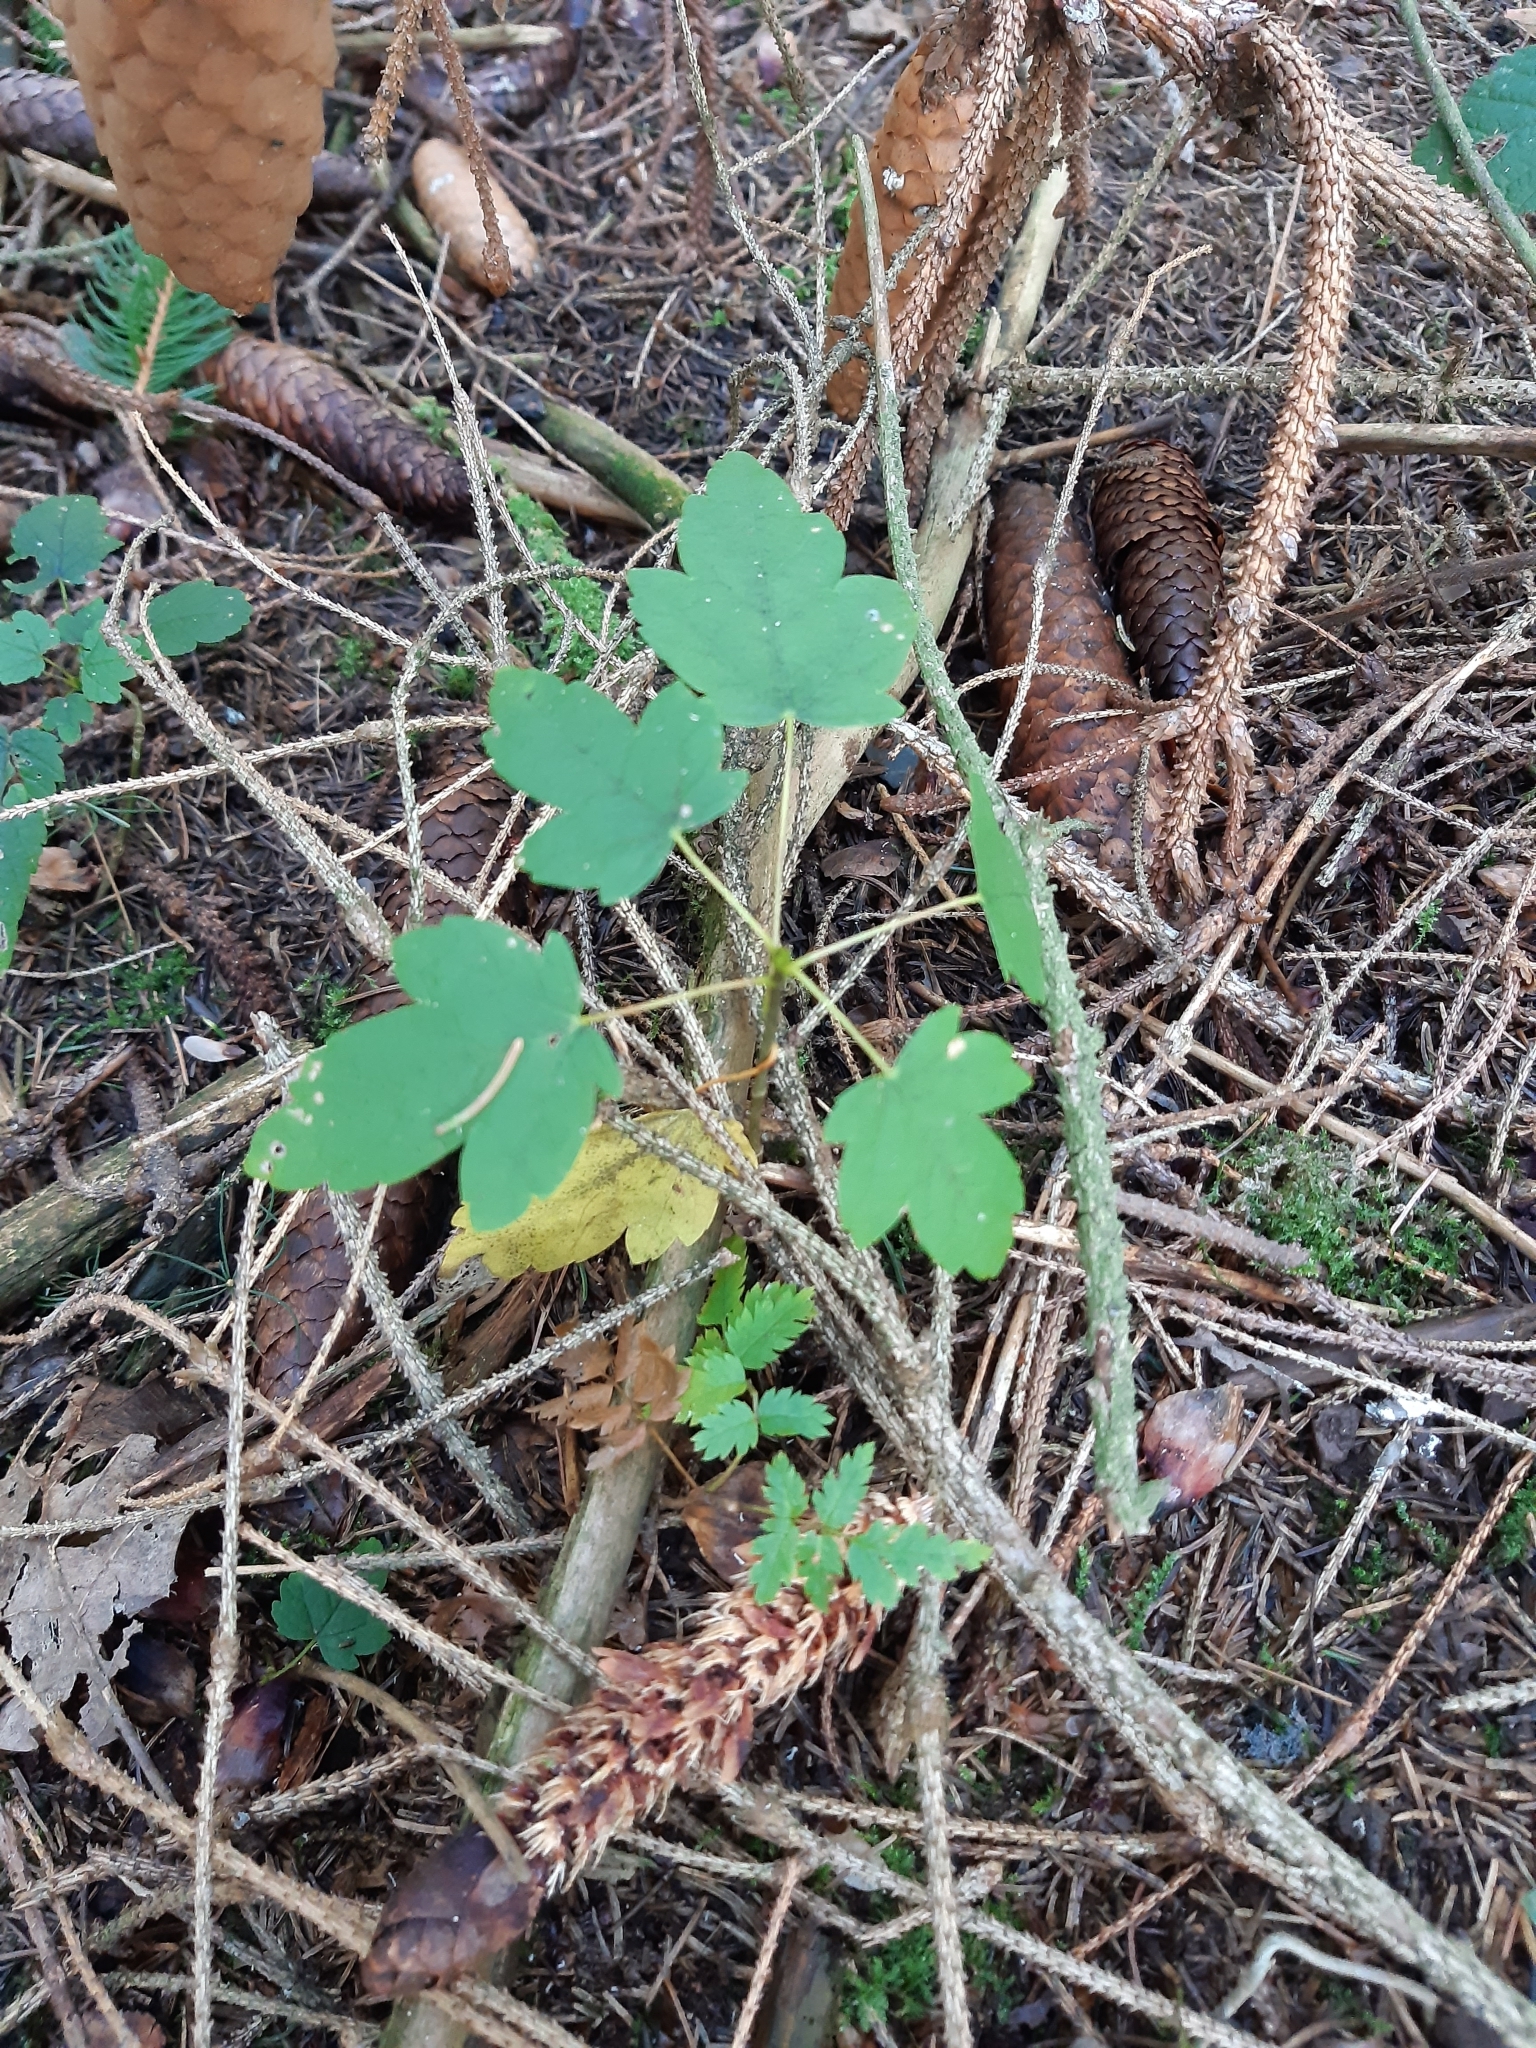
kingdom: Plantae
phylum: Tracheophyta
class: Magnoliopsida
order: Sapindales
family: Sapindaceae
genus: Acer
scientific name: Acer pseudoplatanus
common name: Sycamore
